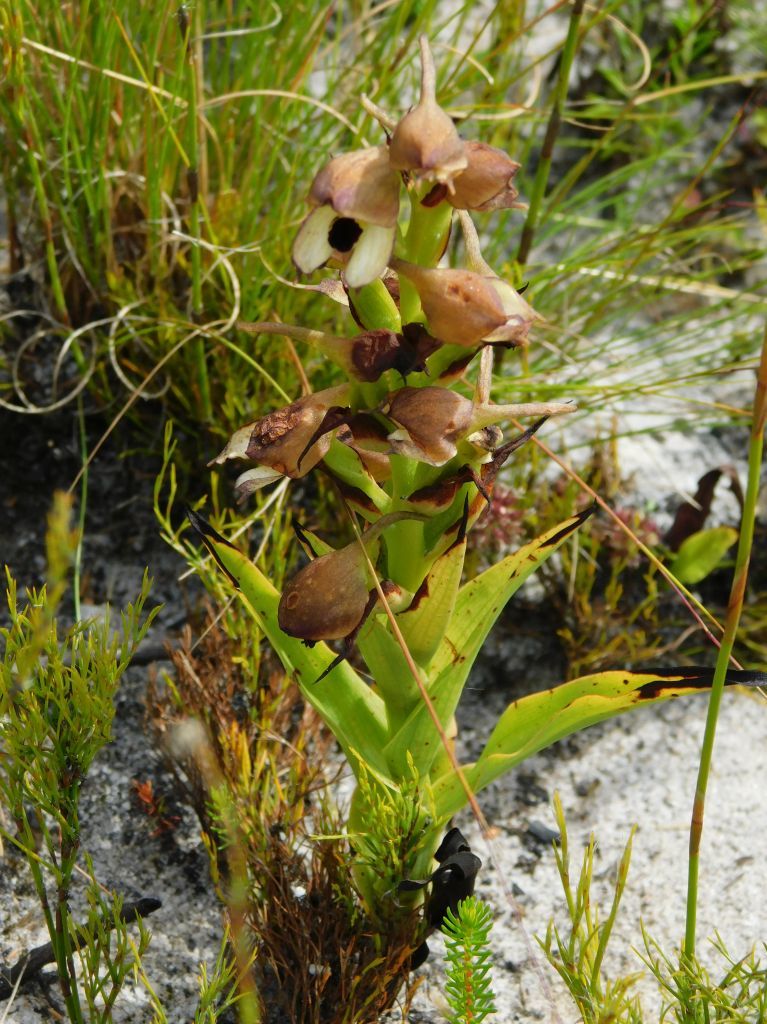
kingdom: Plantae
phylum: Tracheophyta
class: Liliopsida
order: Asparagales
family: Orchidaceae
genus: Disa
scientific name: Disa cornuta
